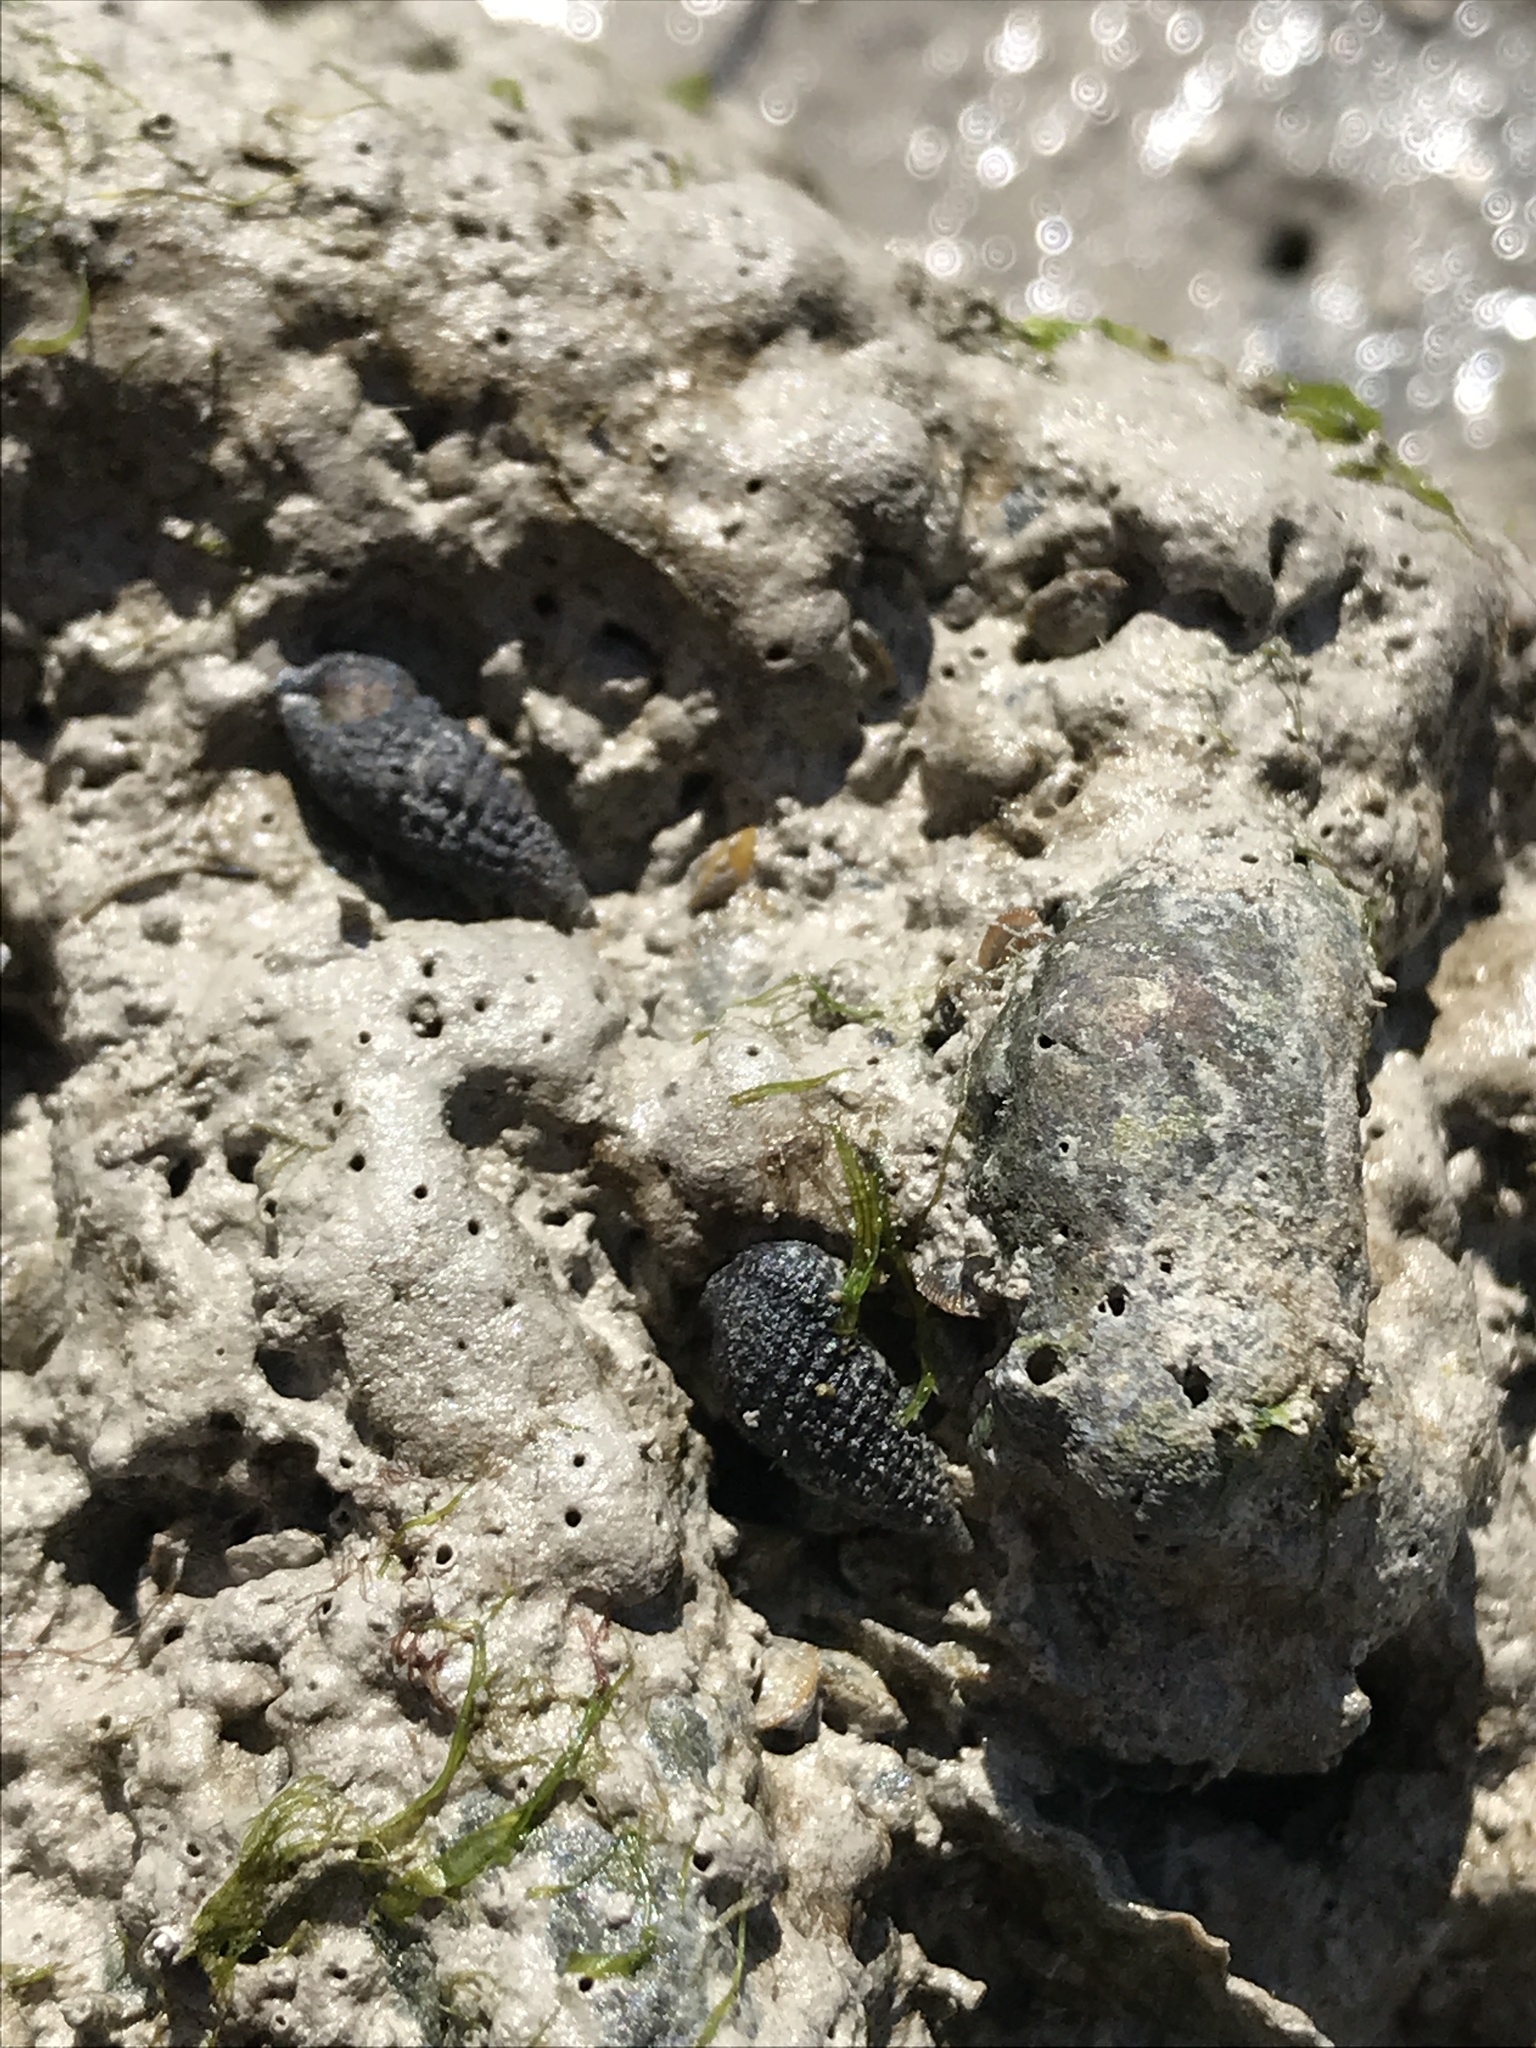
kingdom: Animalia
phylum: Mollusca
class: Gastropoda
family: Cerithiidae
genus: Cerithium
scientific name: Cerithium lutosum
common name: Dwarf atlantic cerith
